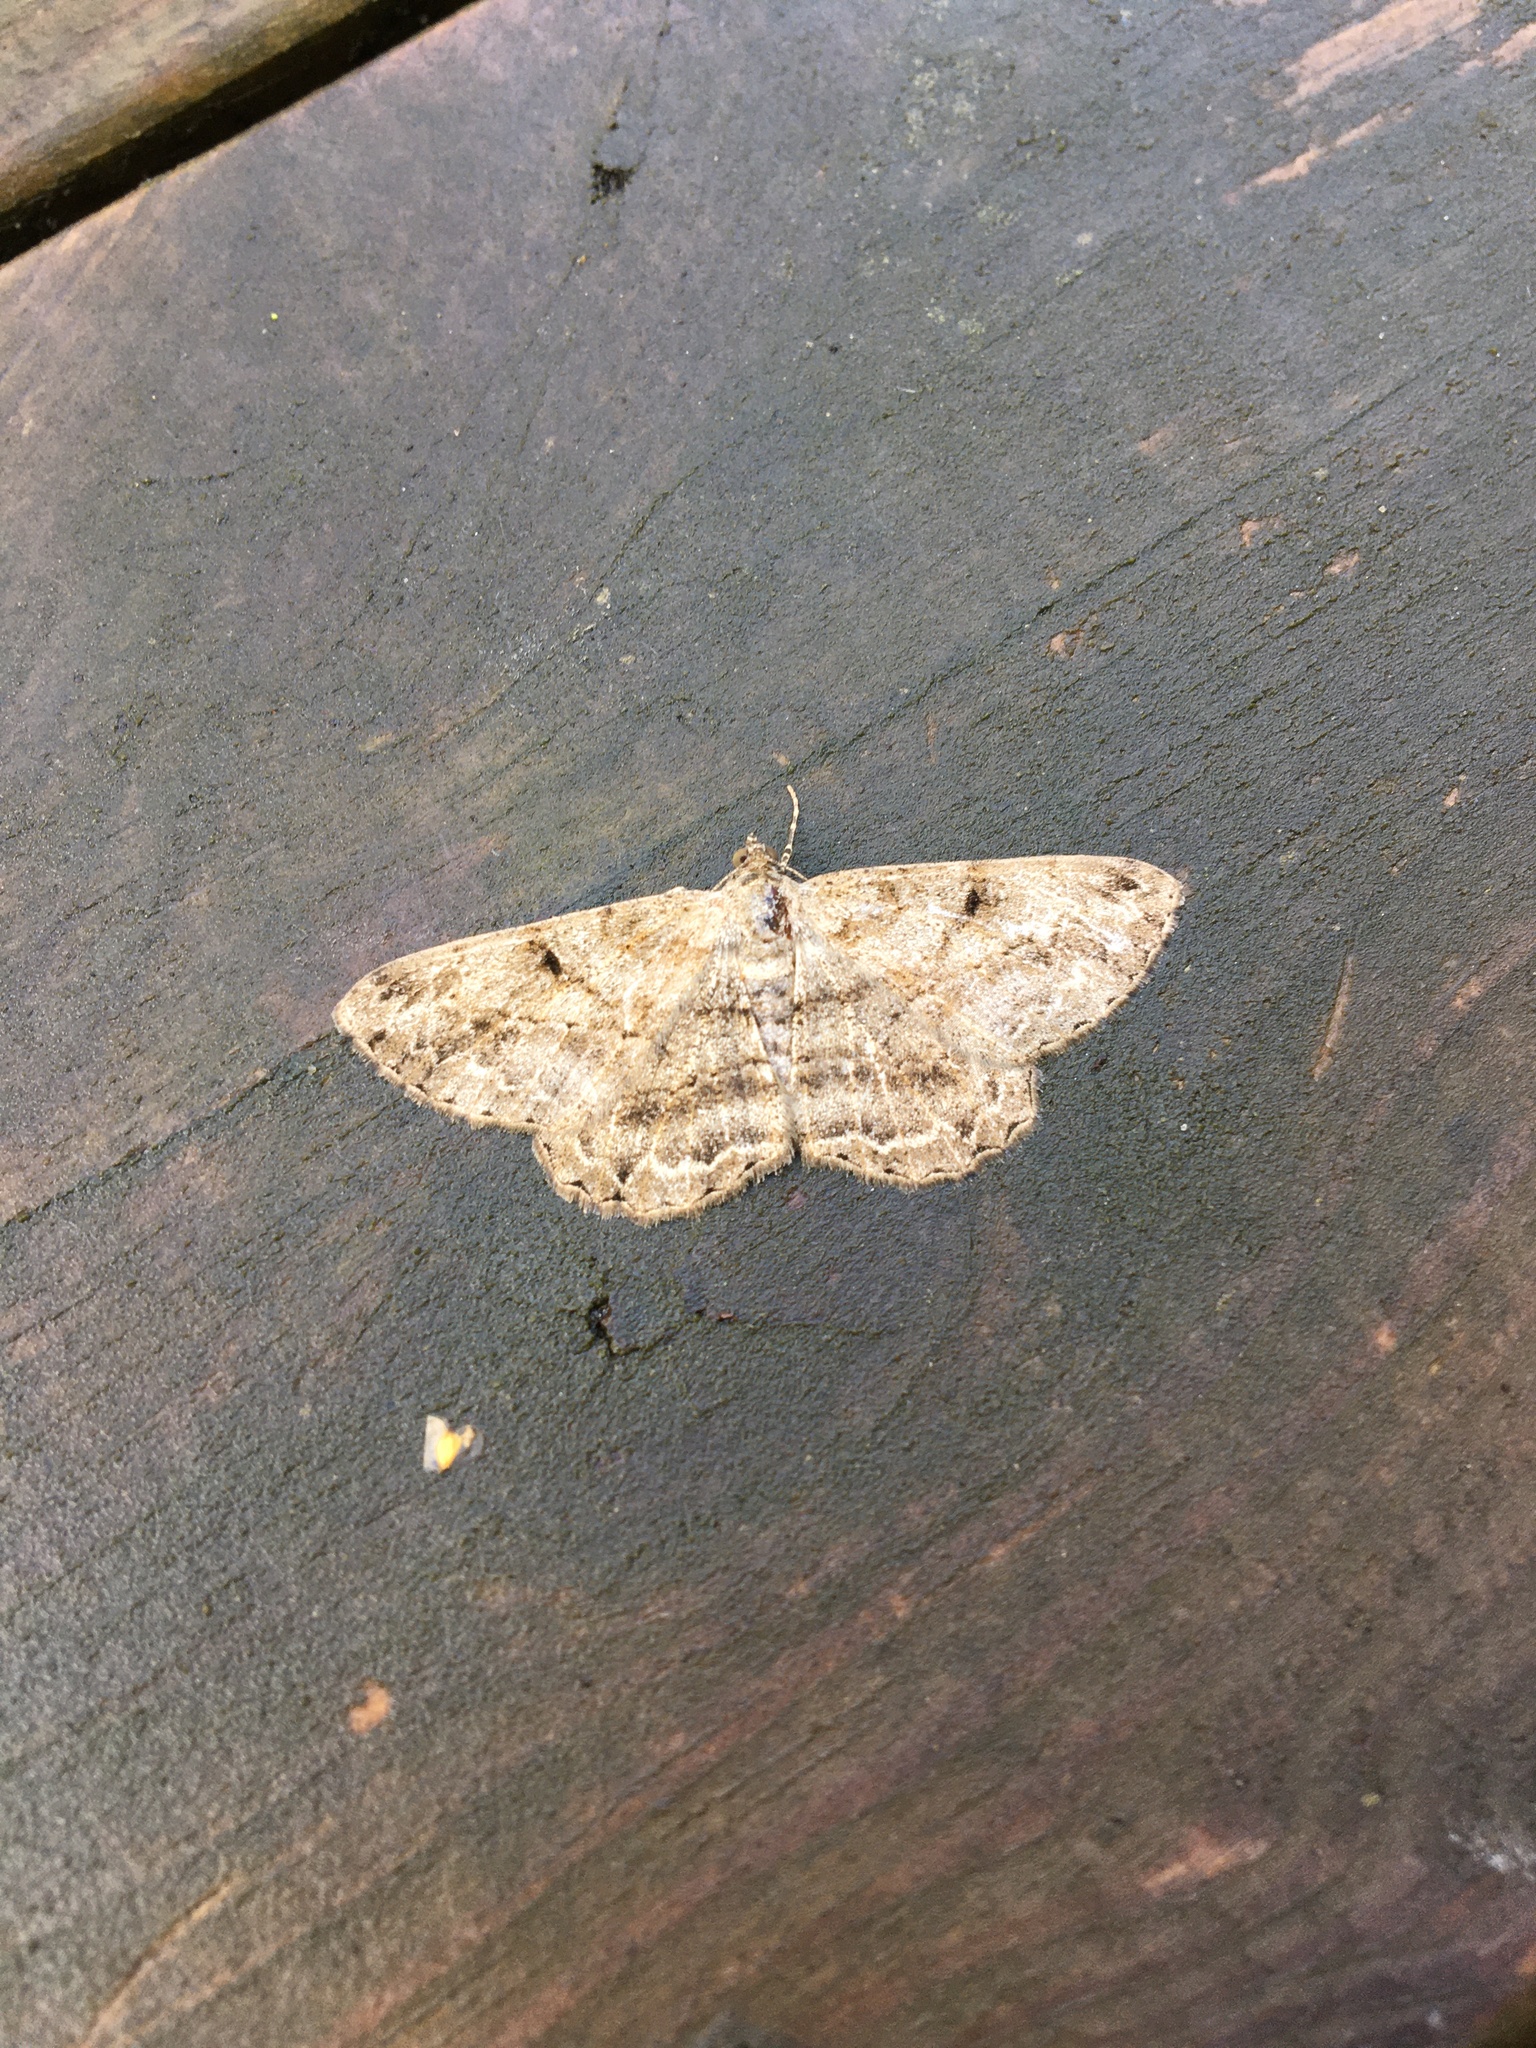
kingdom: Animalia
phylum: Arthropoda
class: Insecta
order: Lepidoptera
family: Geometridae
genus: Peribatodes
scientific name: Peribatodes rhomboidaria
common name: Willow beauty
